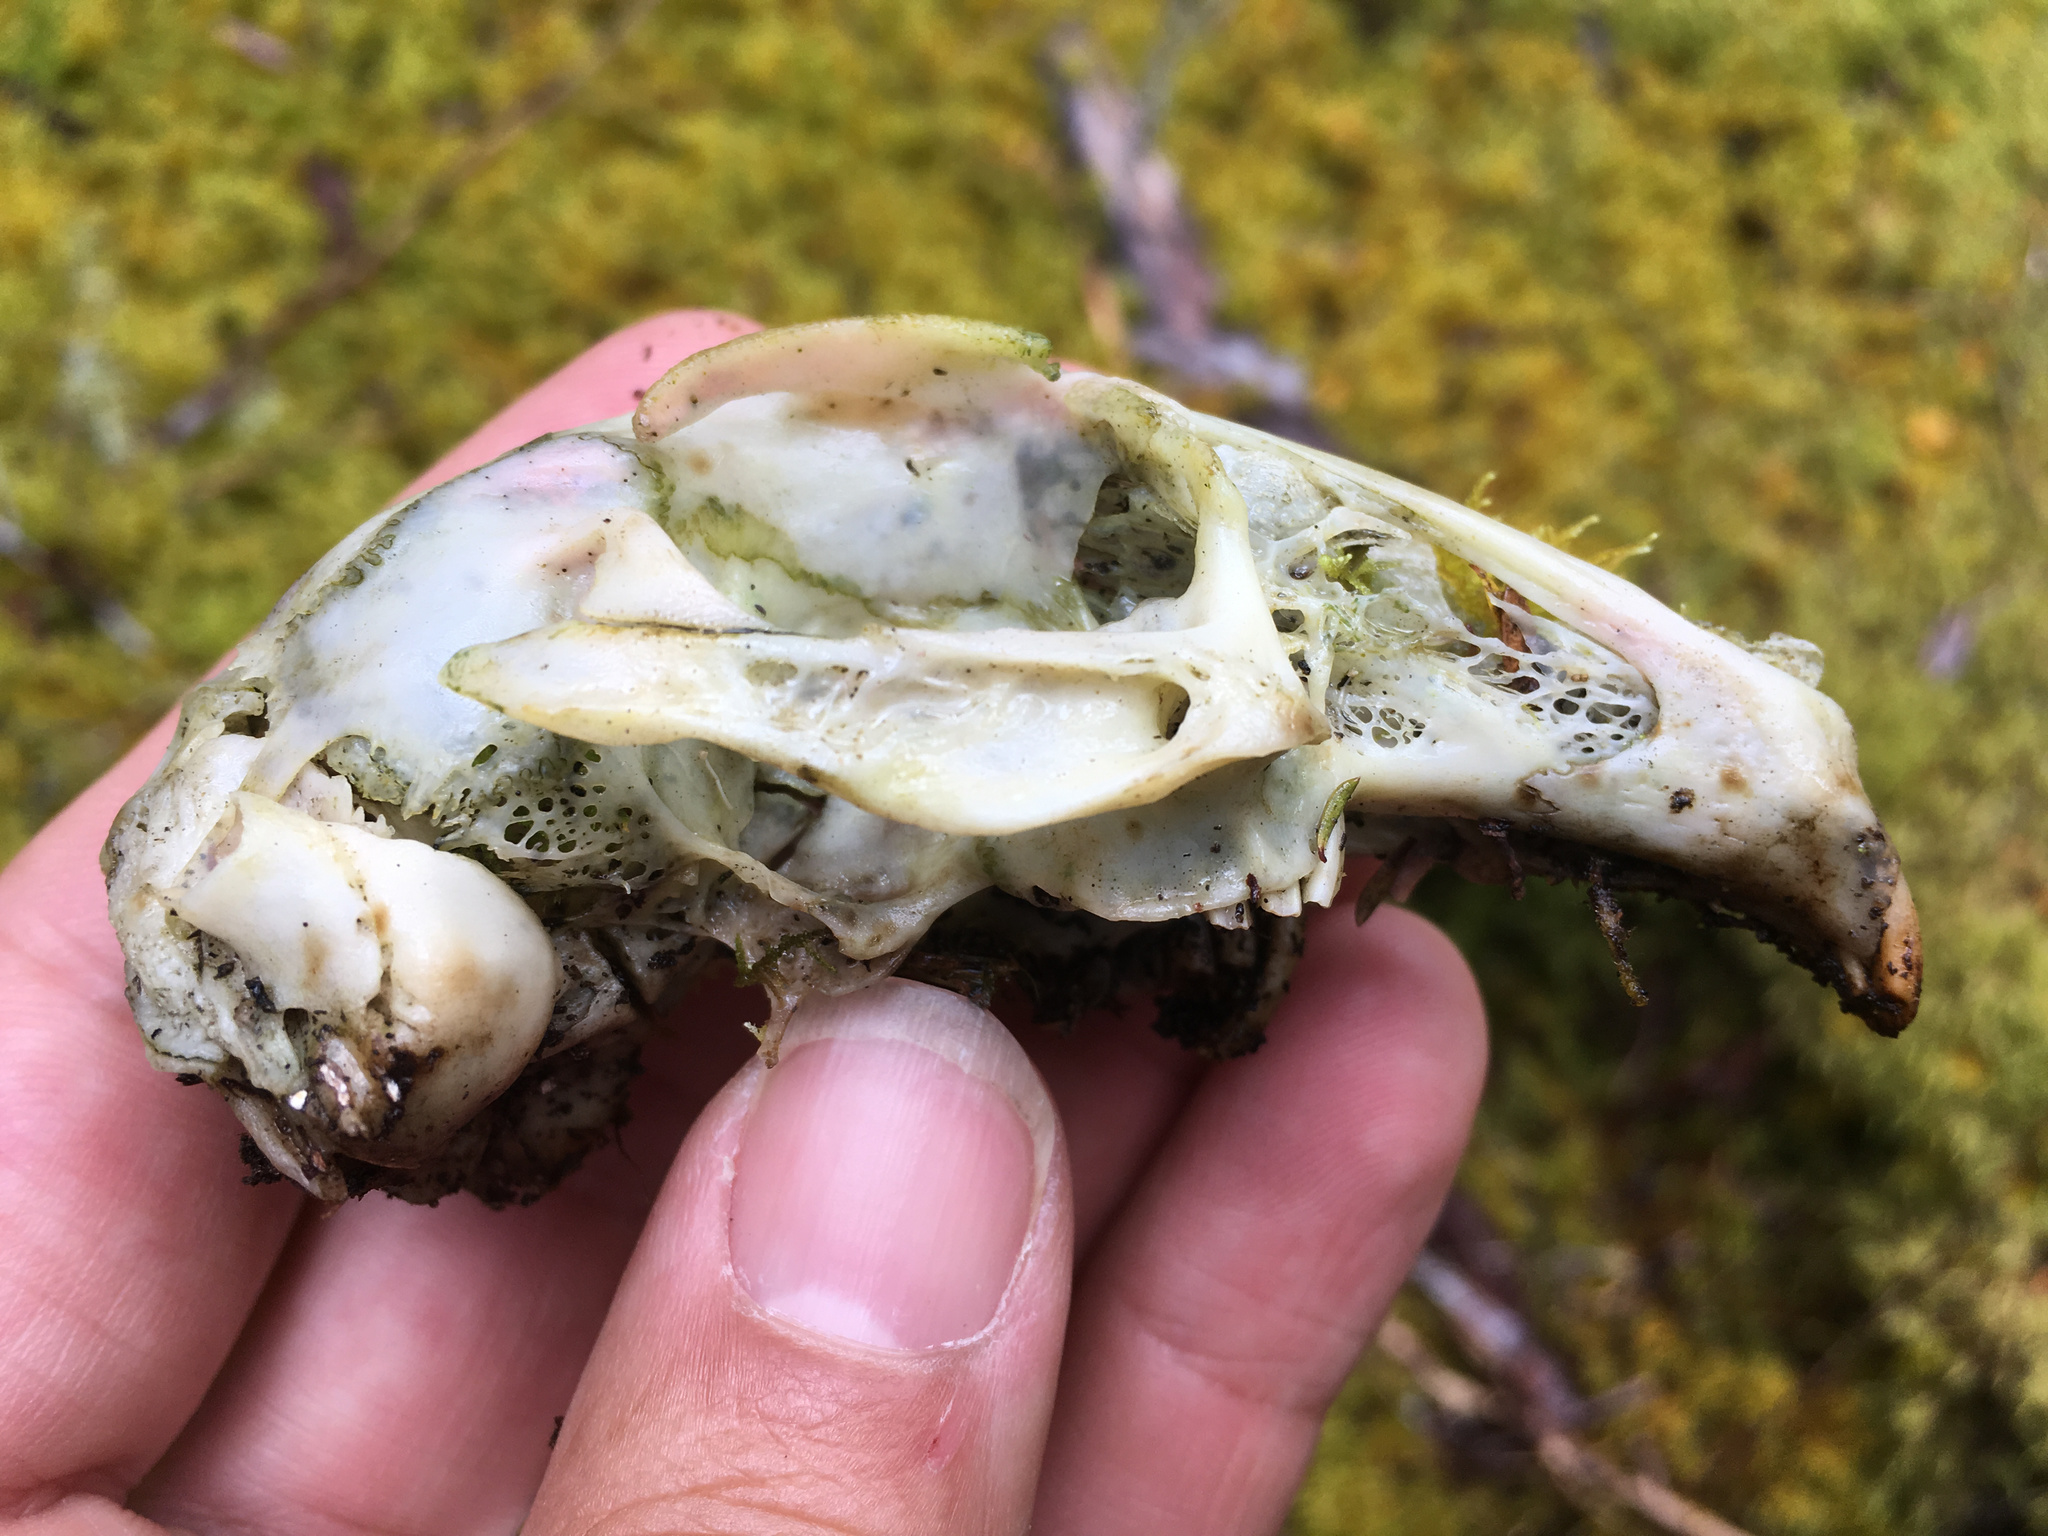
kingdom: Animalia
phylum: Chordata
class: Mammalia
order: Lagomorpha
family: Leporidae
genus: Oryctolagus
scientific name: Oryctolagus cuniculus
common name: European rabbit
